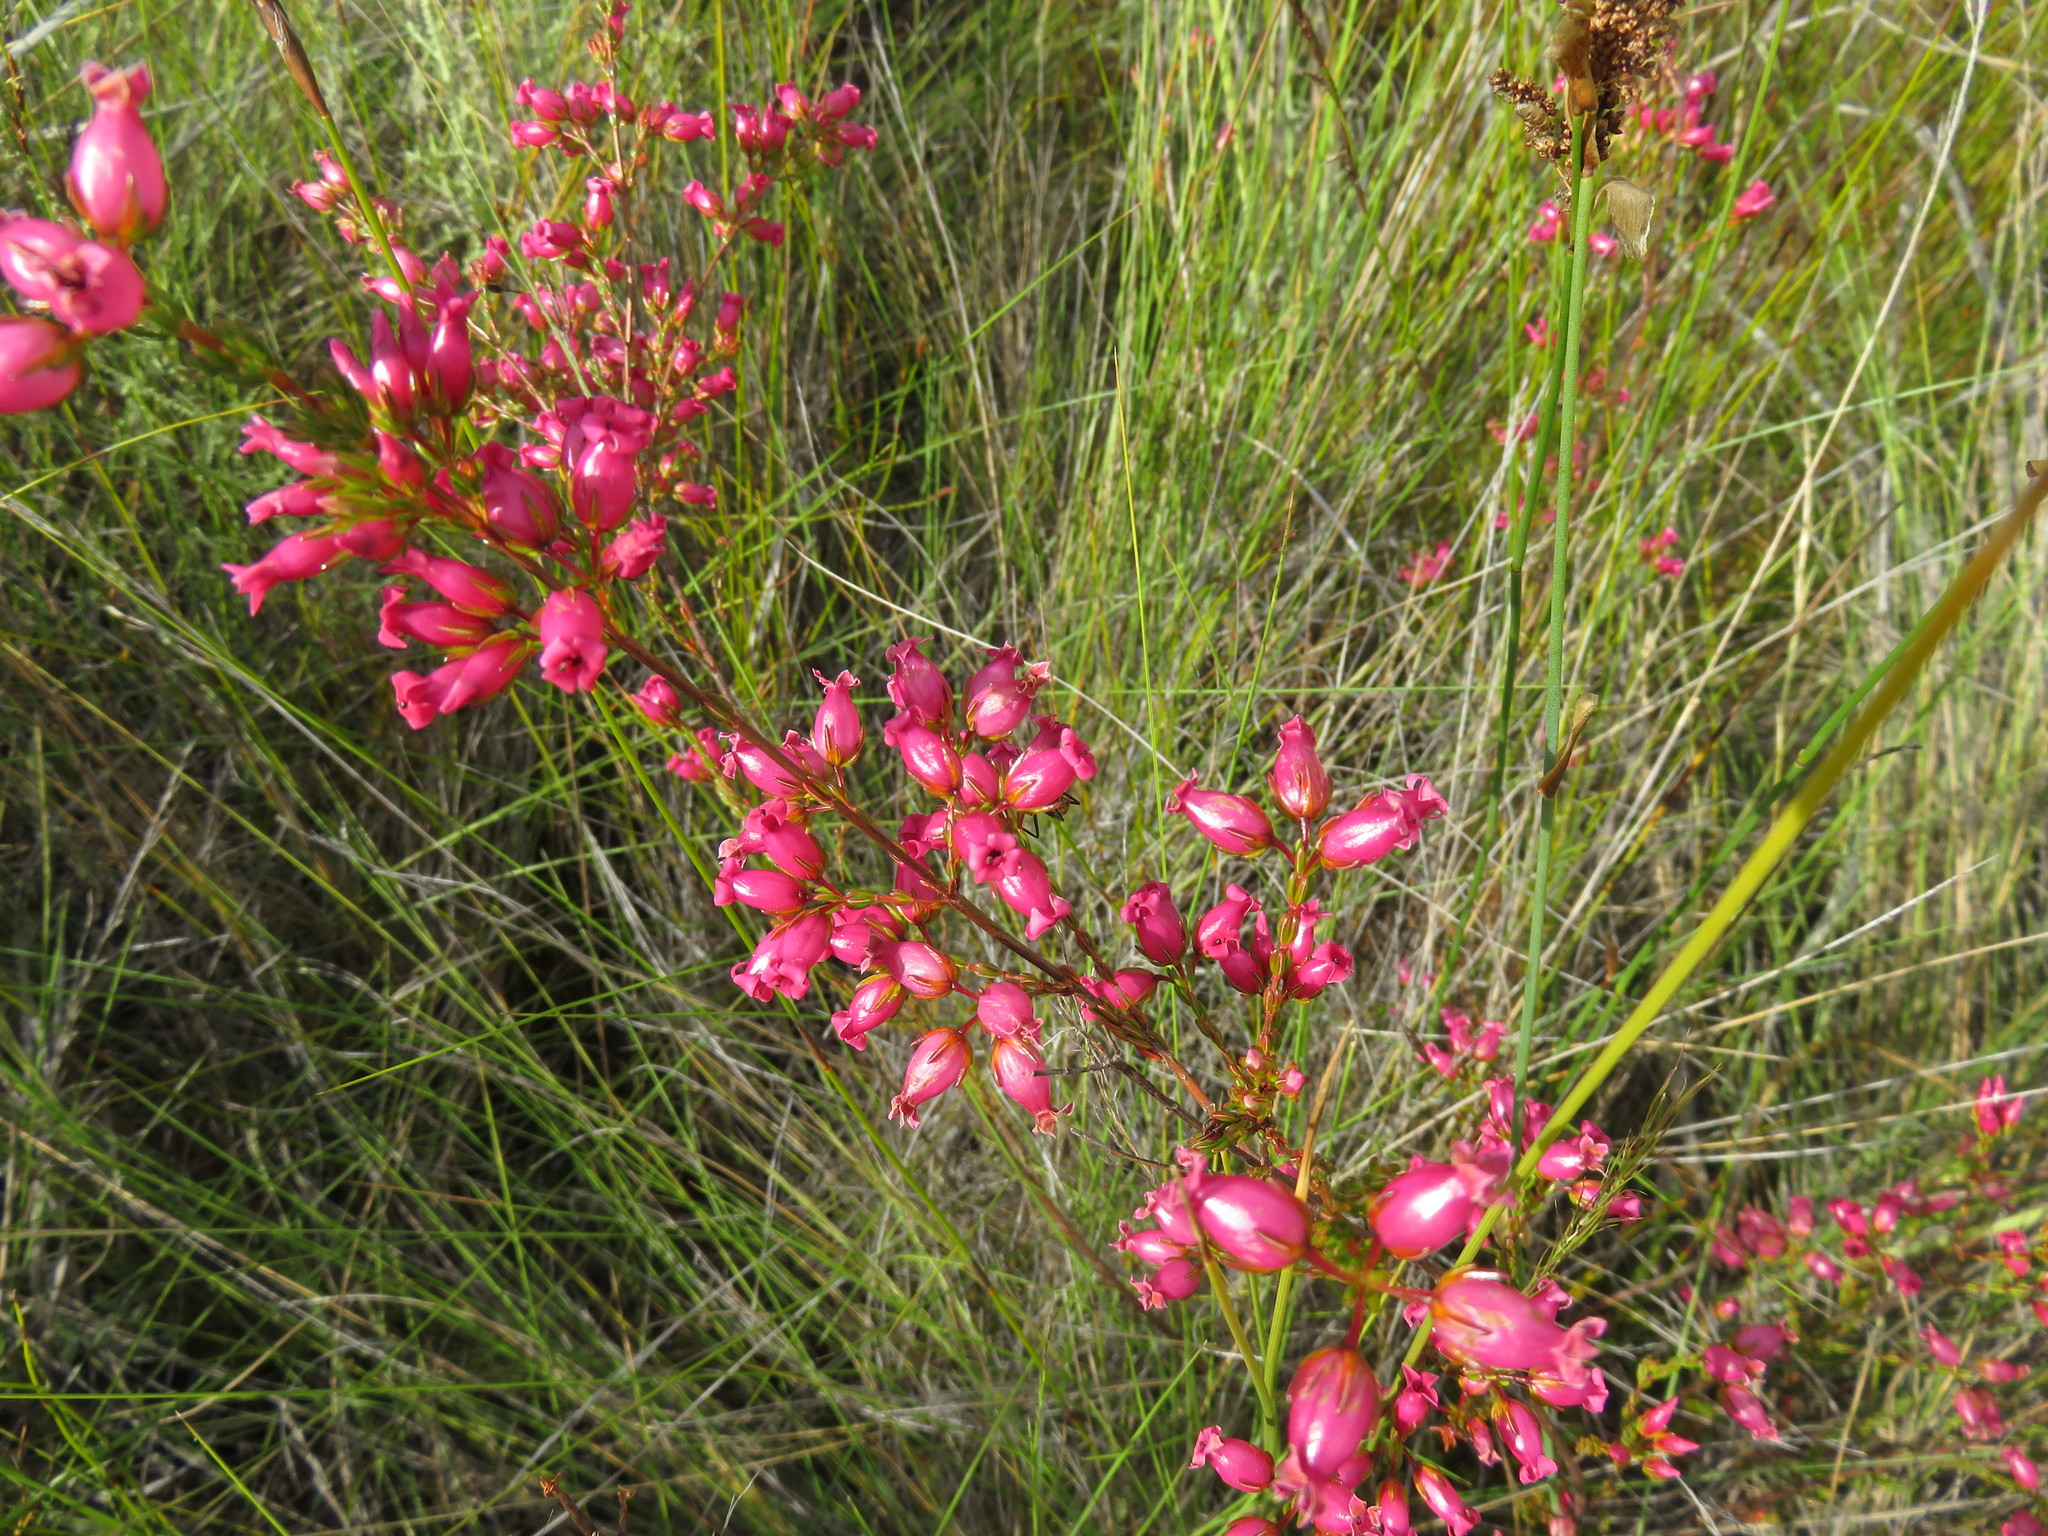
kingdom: Plantae
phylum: Tracheophyta
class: Magnoliopsida
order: Ericales
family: Ericaceae
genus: Erica
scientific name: Erica daphniflora
